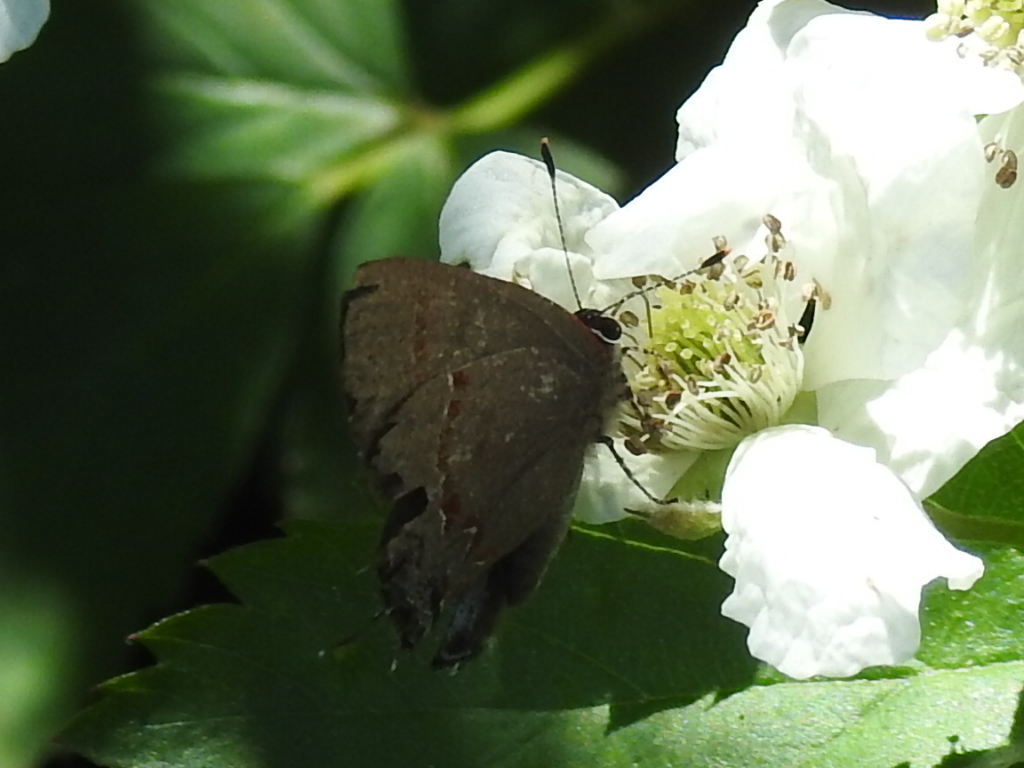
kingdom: Animalia
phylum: Arthropoda
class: Insecta
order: Lepidoptera
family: Lycaenidae
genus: Calycopis
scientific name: Calycopis cecrops
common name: Red-banded hairstreak
